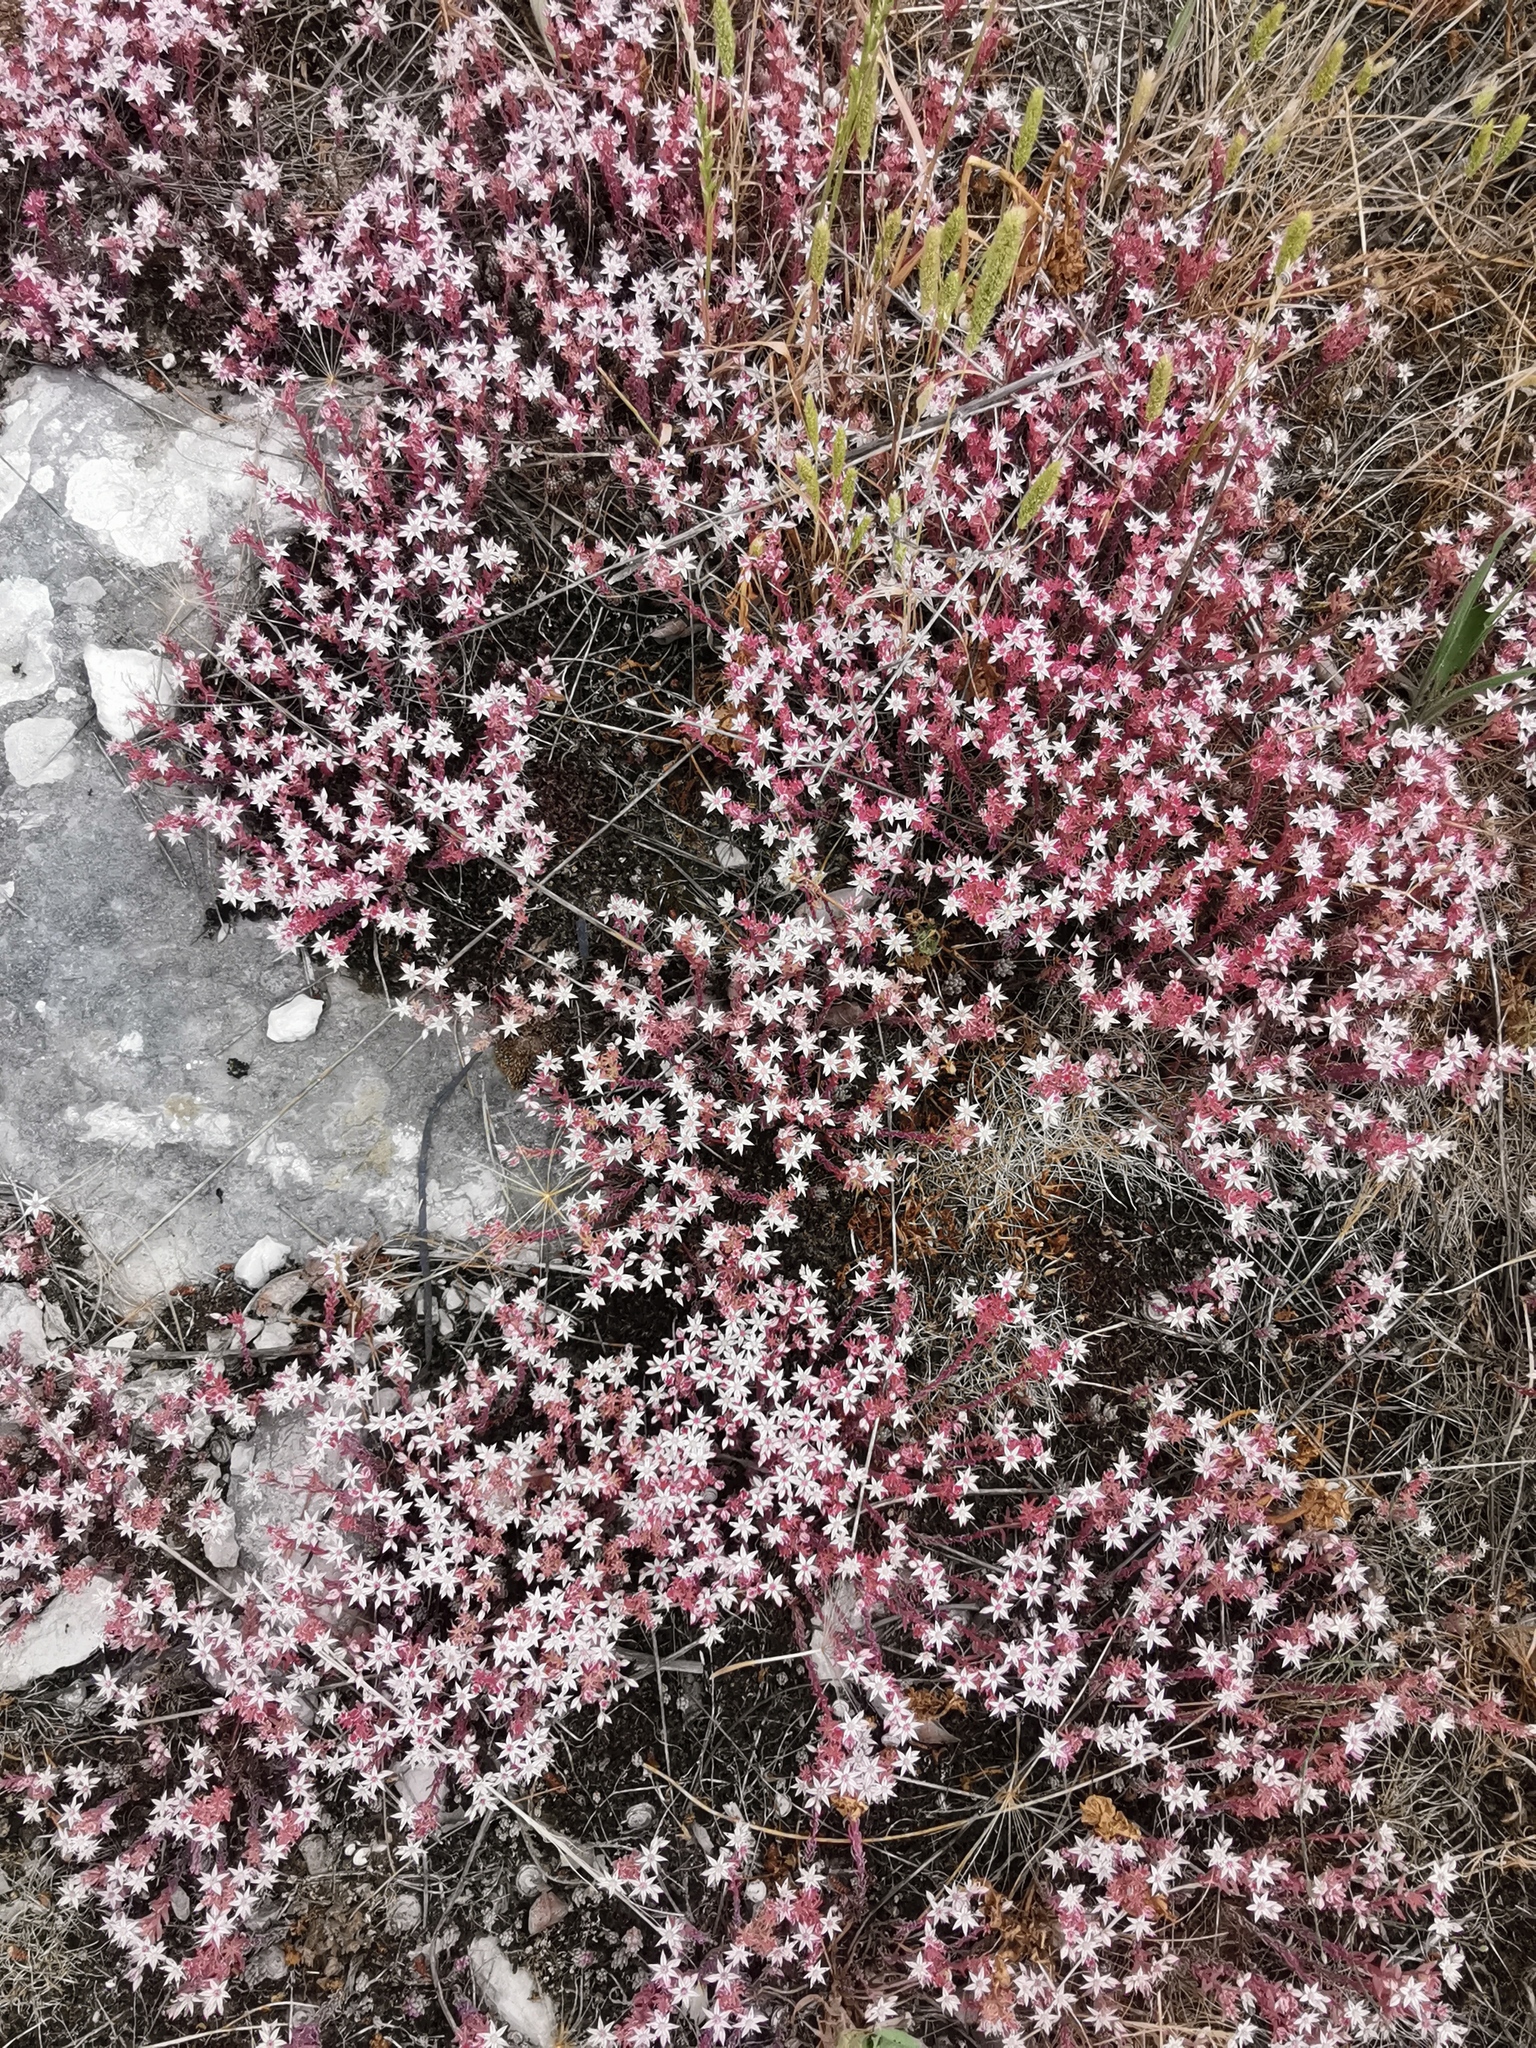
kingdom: Plantae
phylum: Tracheophyta
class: Magnoliopsida
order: Saxifragales
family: Crassulaceae
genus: Sedum
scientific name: Sedum hispanicum
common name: Spanish stonecrop
